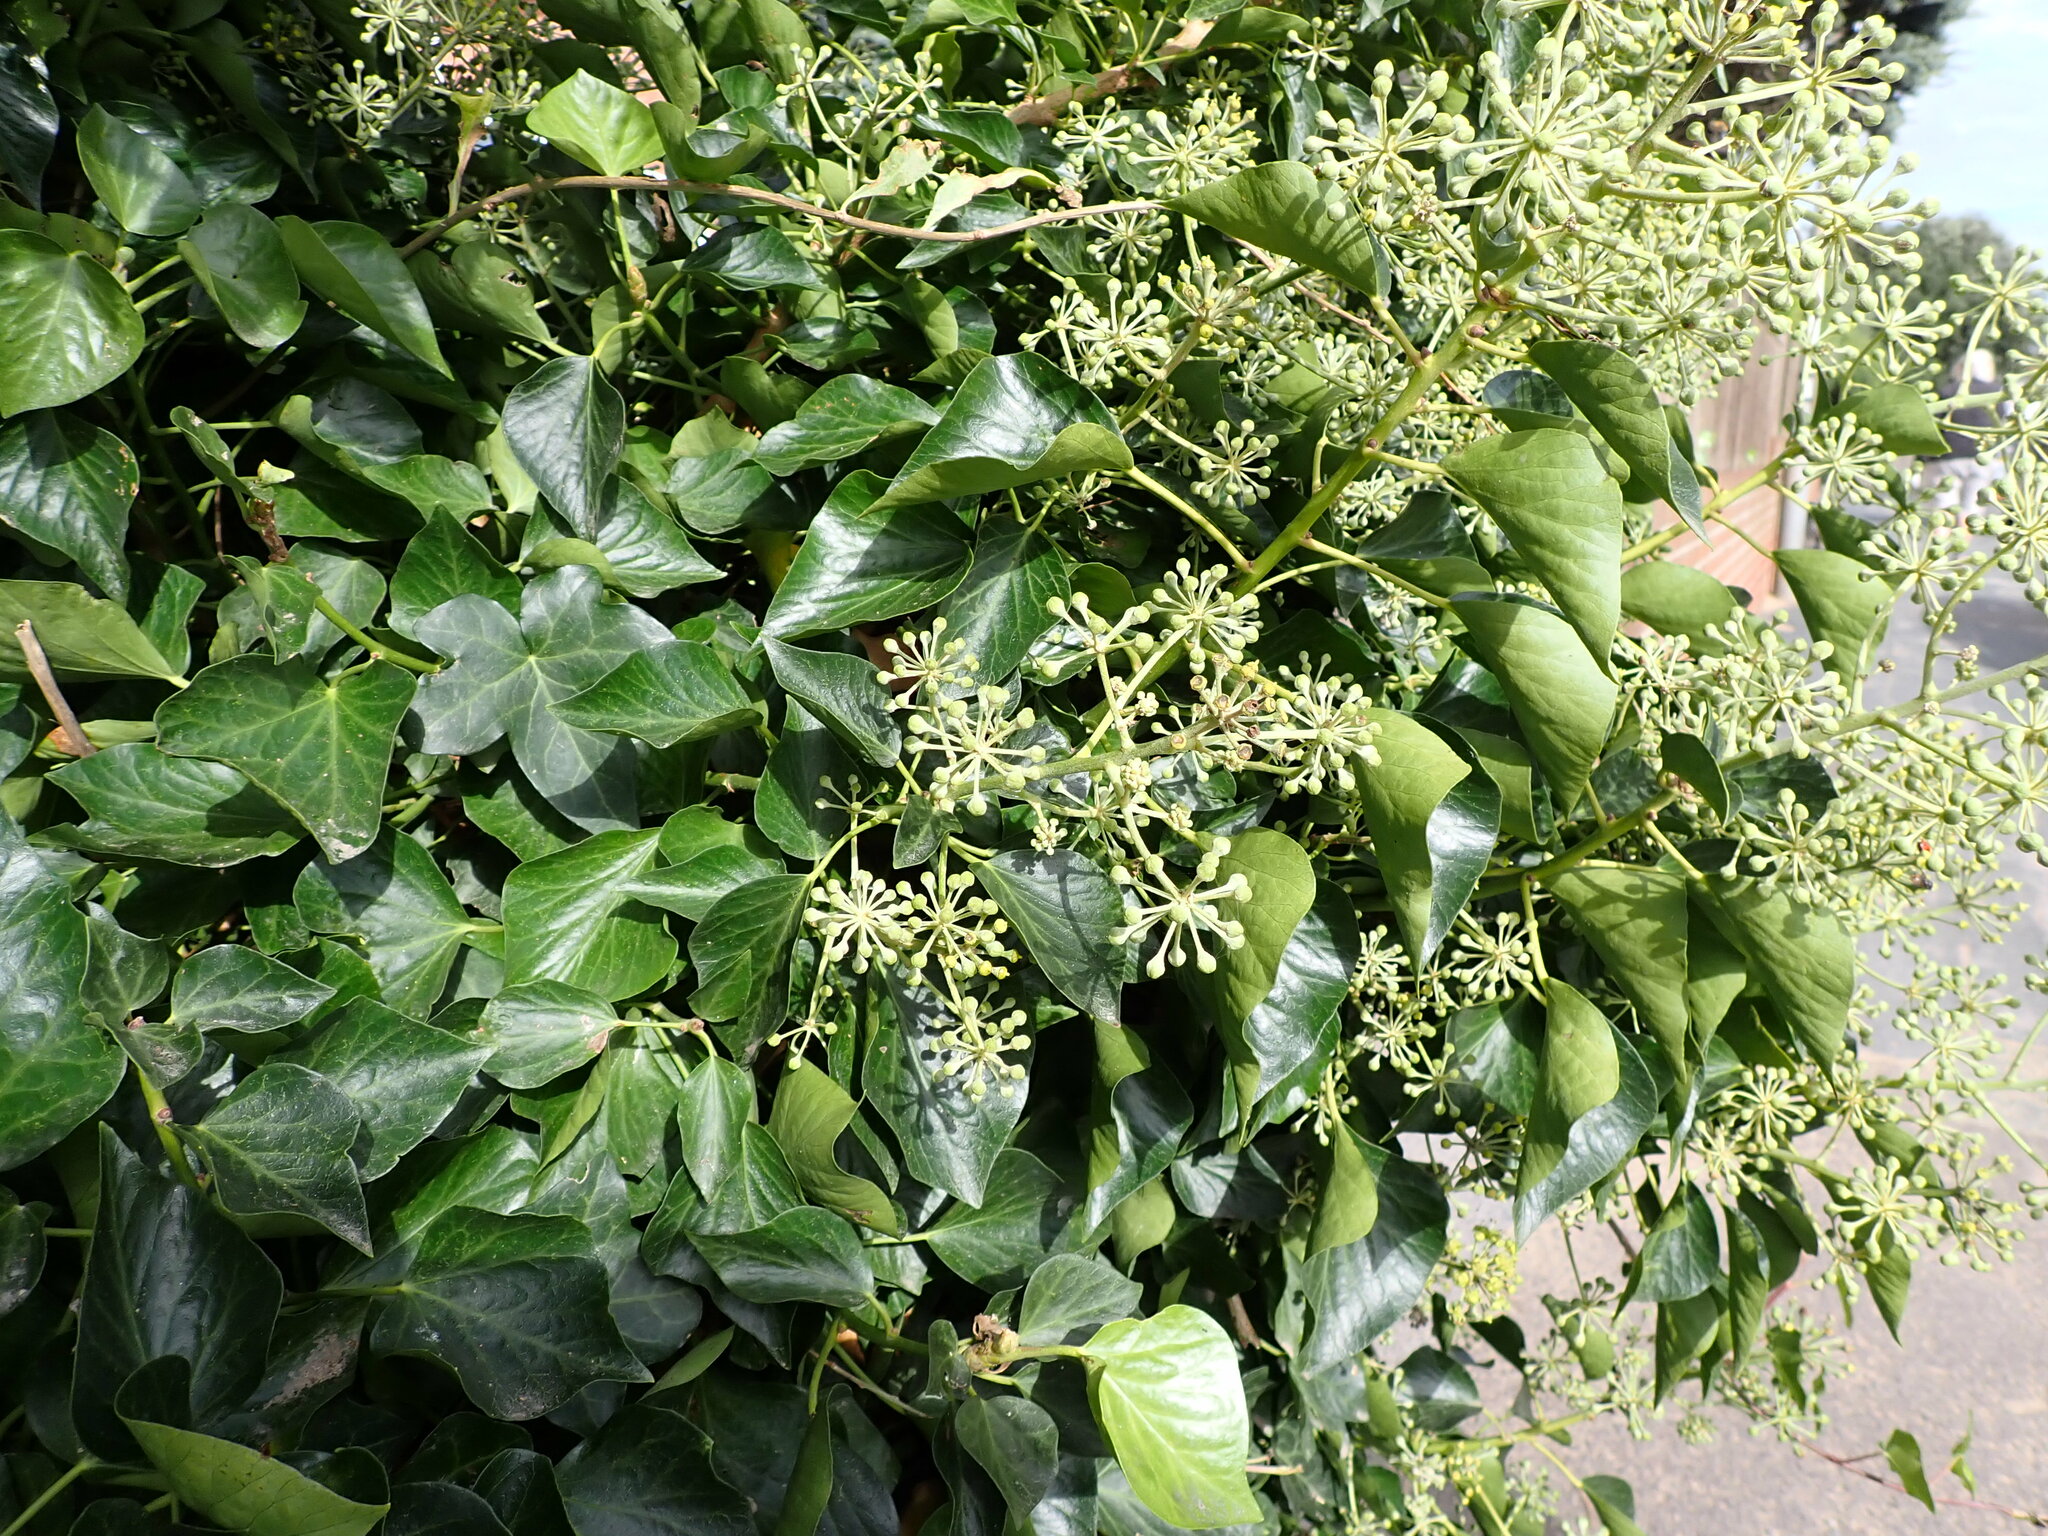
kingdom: Plantae
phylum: Tracheophyta
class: Magnoliopsida
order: Apiales
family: Araliaceae
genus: Hedera
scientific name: Hedera helix
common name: Ivy
